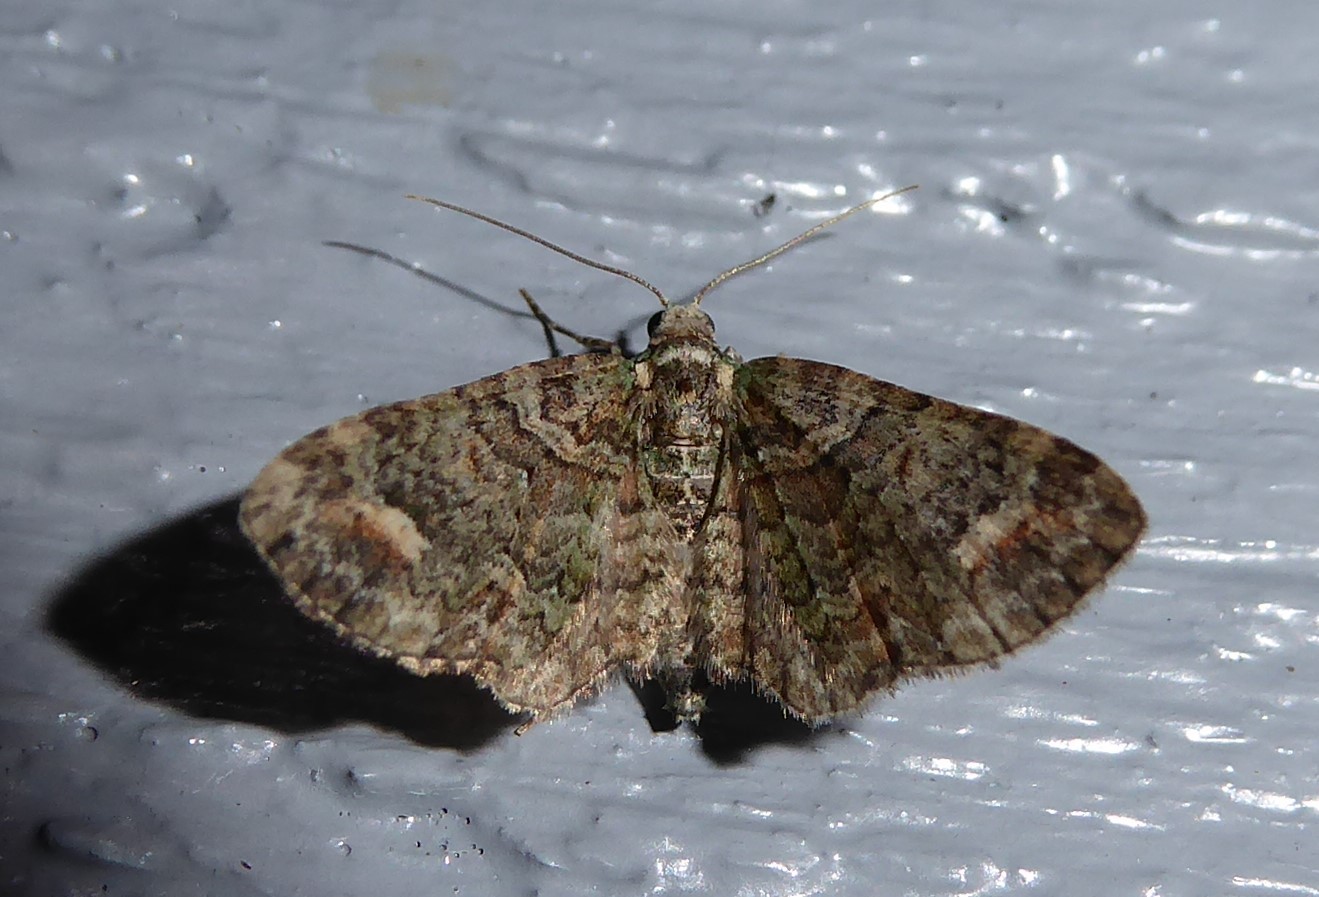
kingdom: Animalia
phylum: Arthropoda
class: Insecta
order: Lepidoptera
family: Geometridae
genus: Idaea
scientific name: Idaea mutanda
